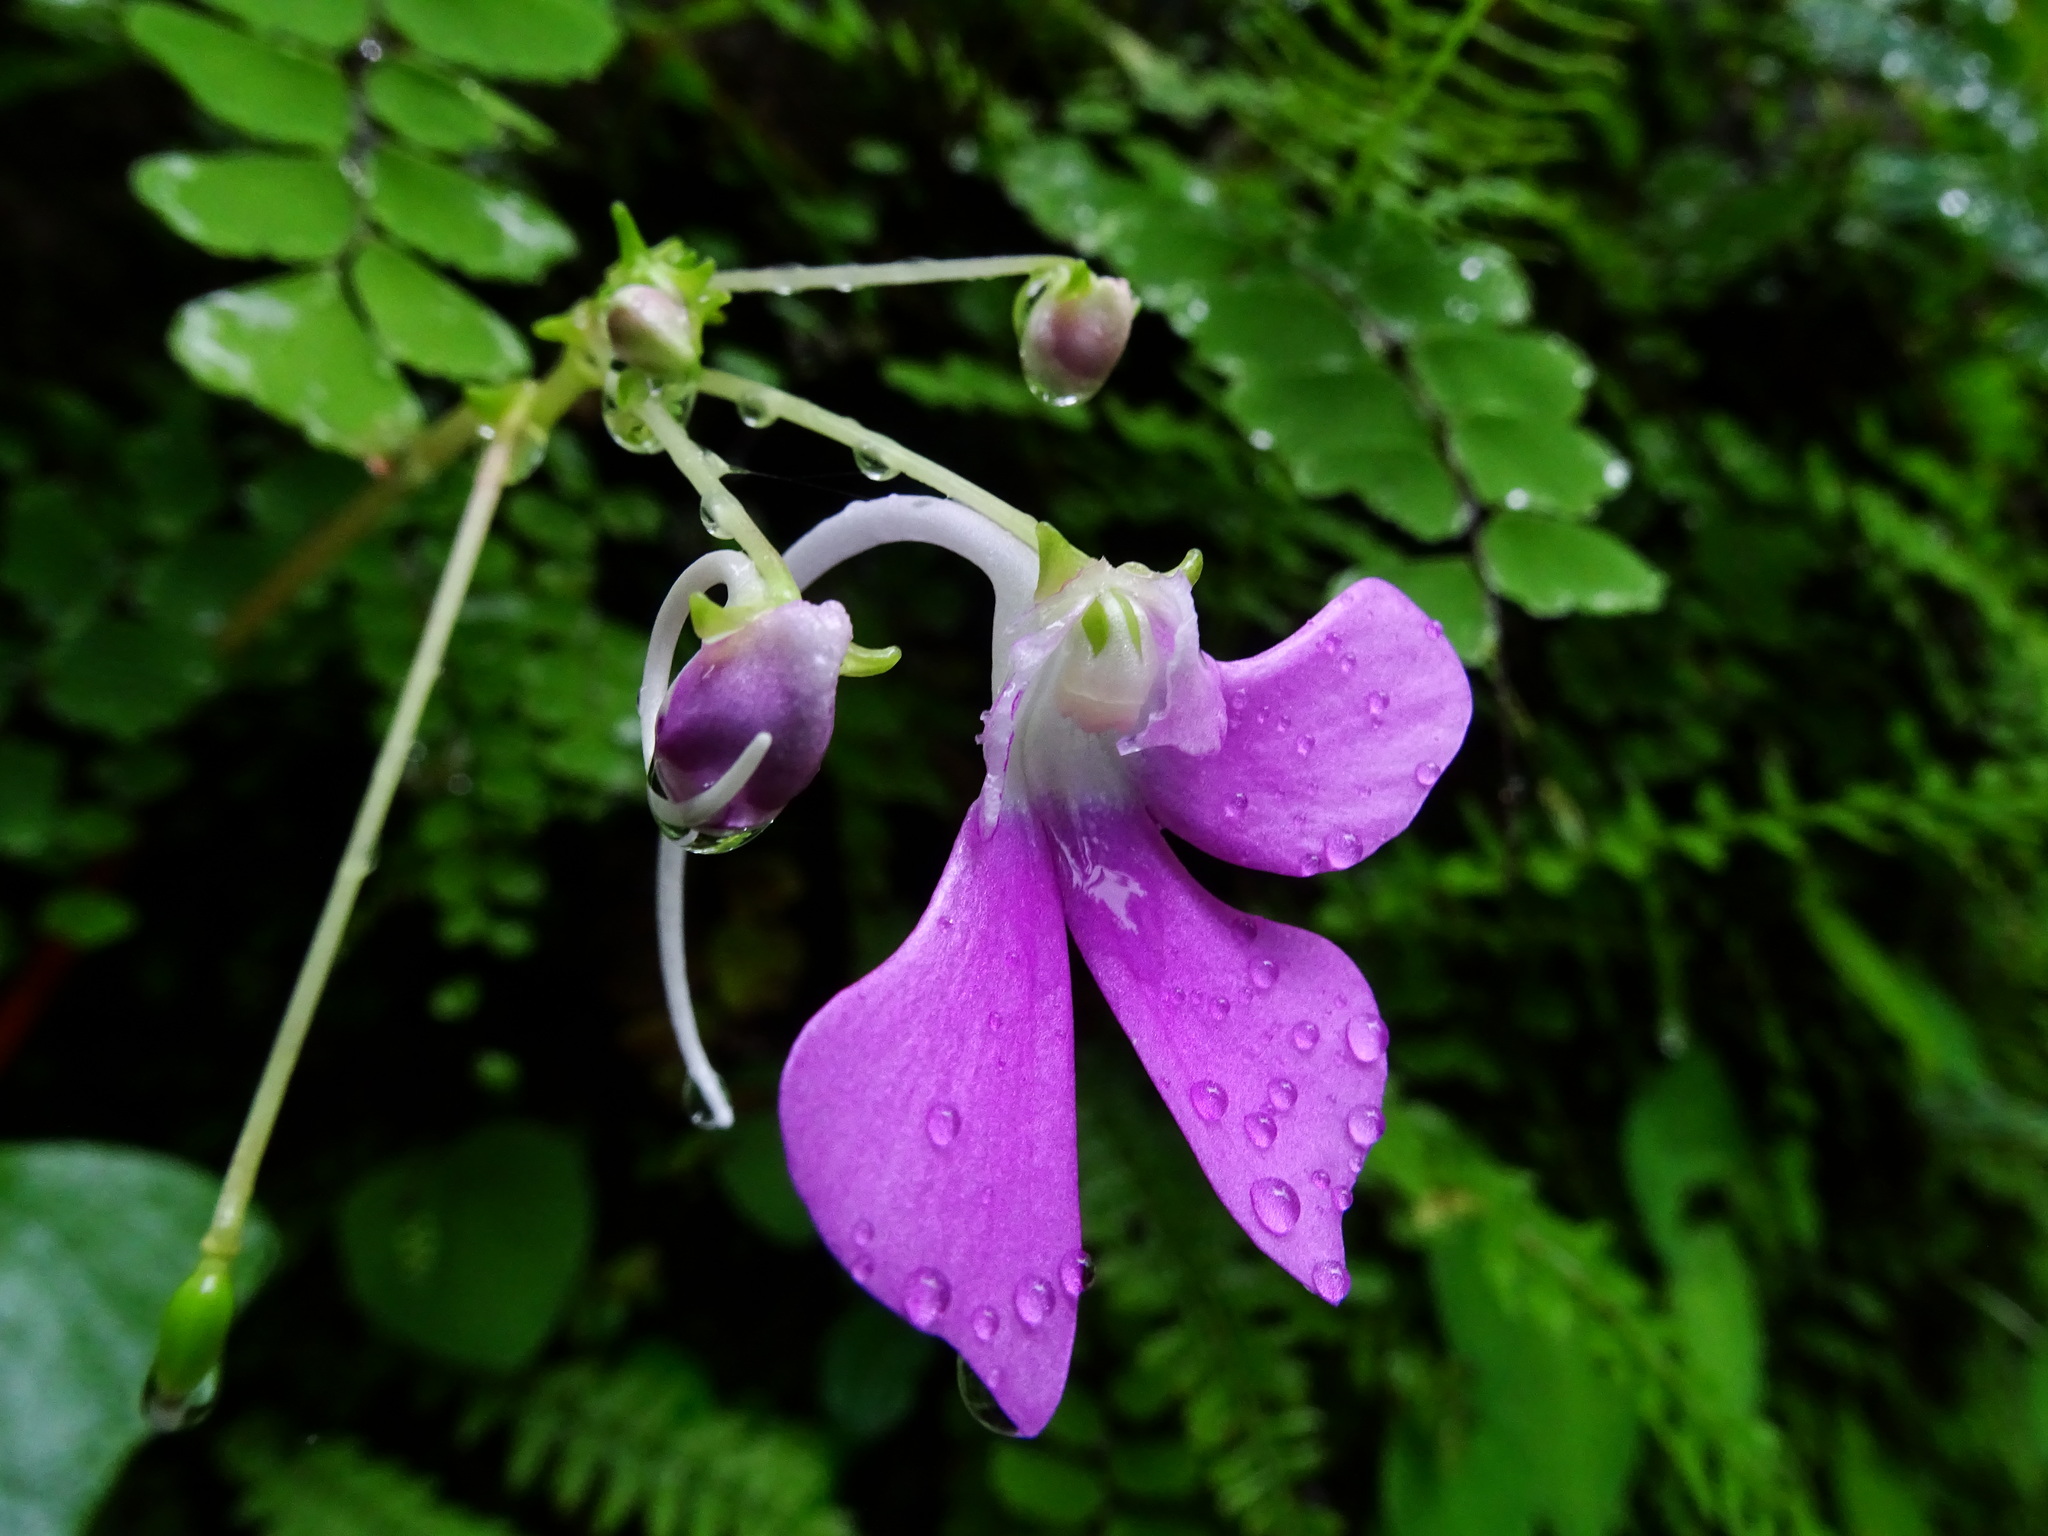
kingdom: Plantae
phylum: Tracheophyta
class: Magnoliopsida
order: Ericales
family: Balsaminaceae
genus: Impatiens
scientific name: Impatiens acaulis
